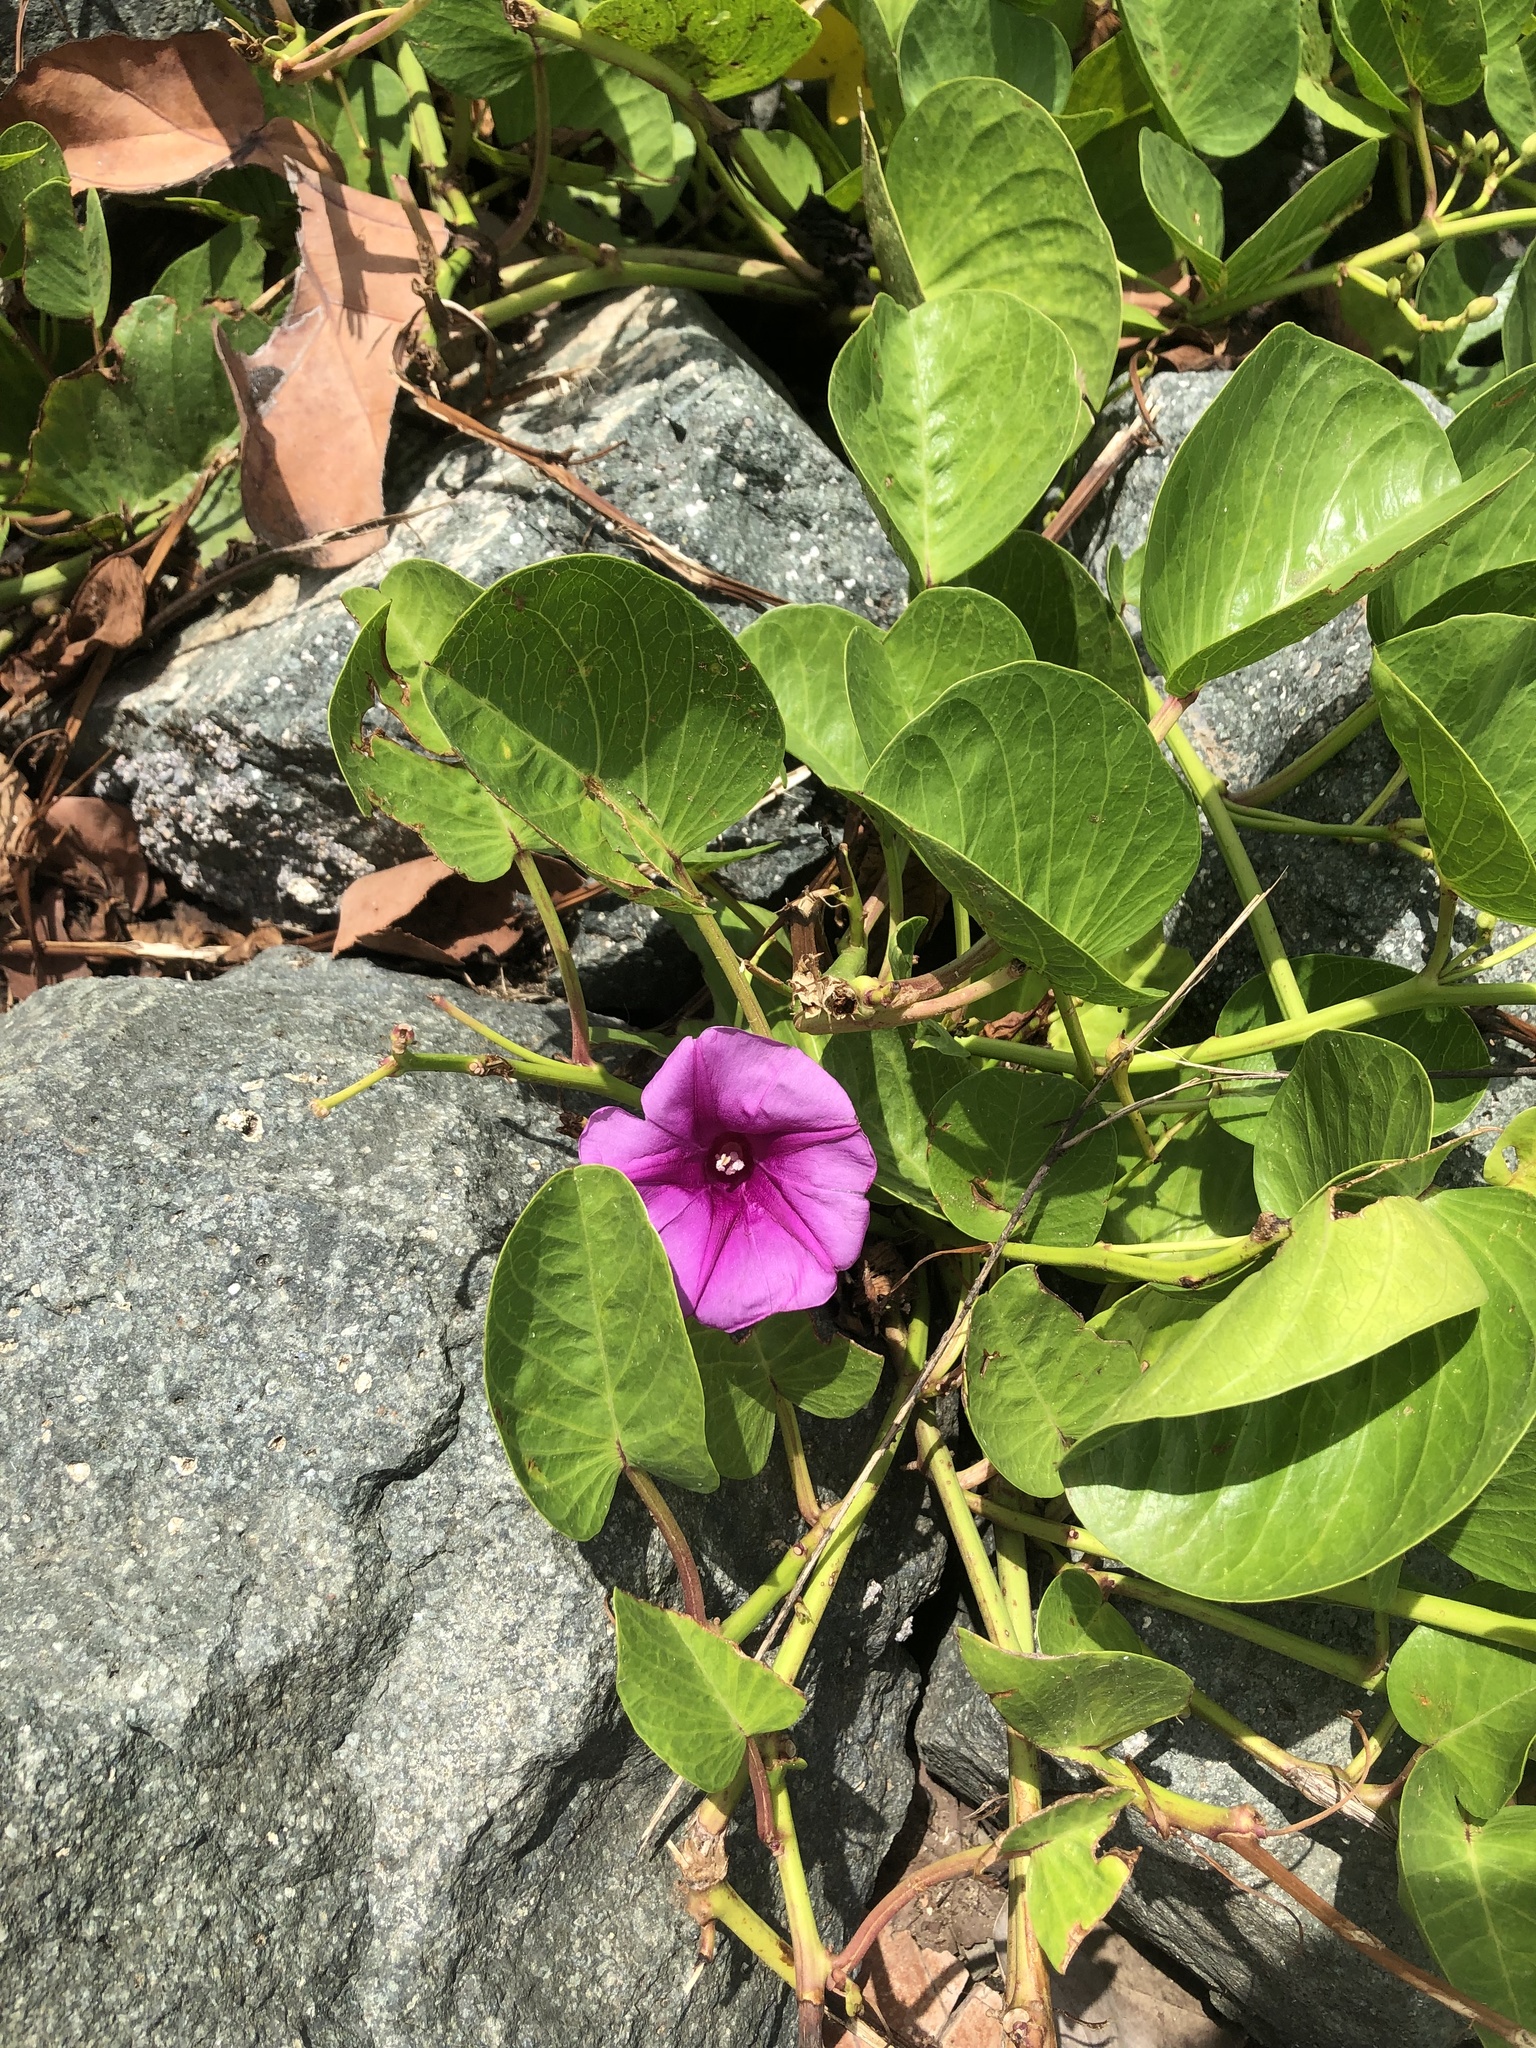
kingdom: Plantae
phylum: Tracheophyta
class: Magnoliopsida
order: Solanales
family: Convolvulaceae
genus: Ipomoea
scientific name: Ipomoea pes-caprae
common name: Beach morning glory
